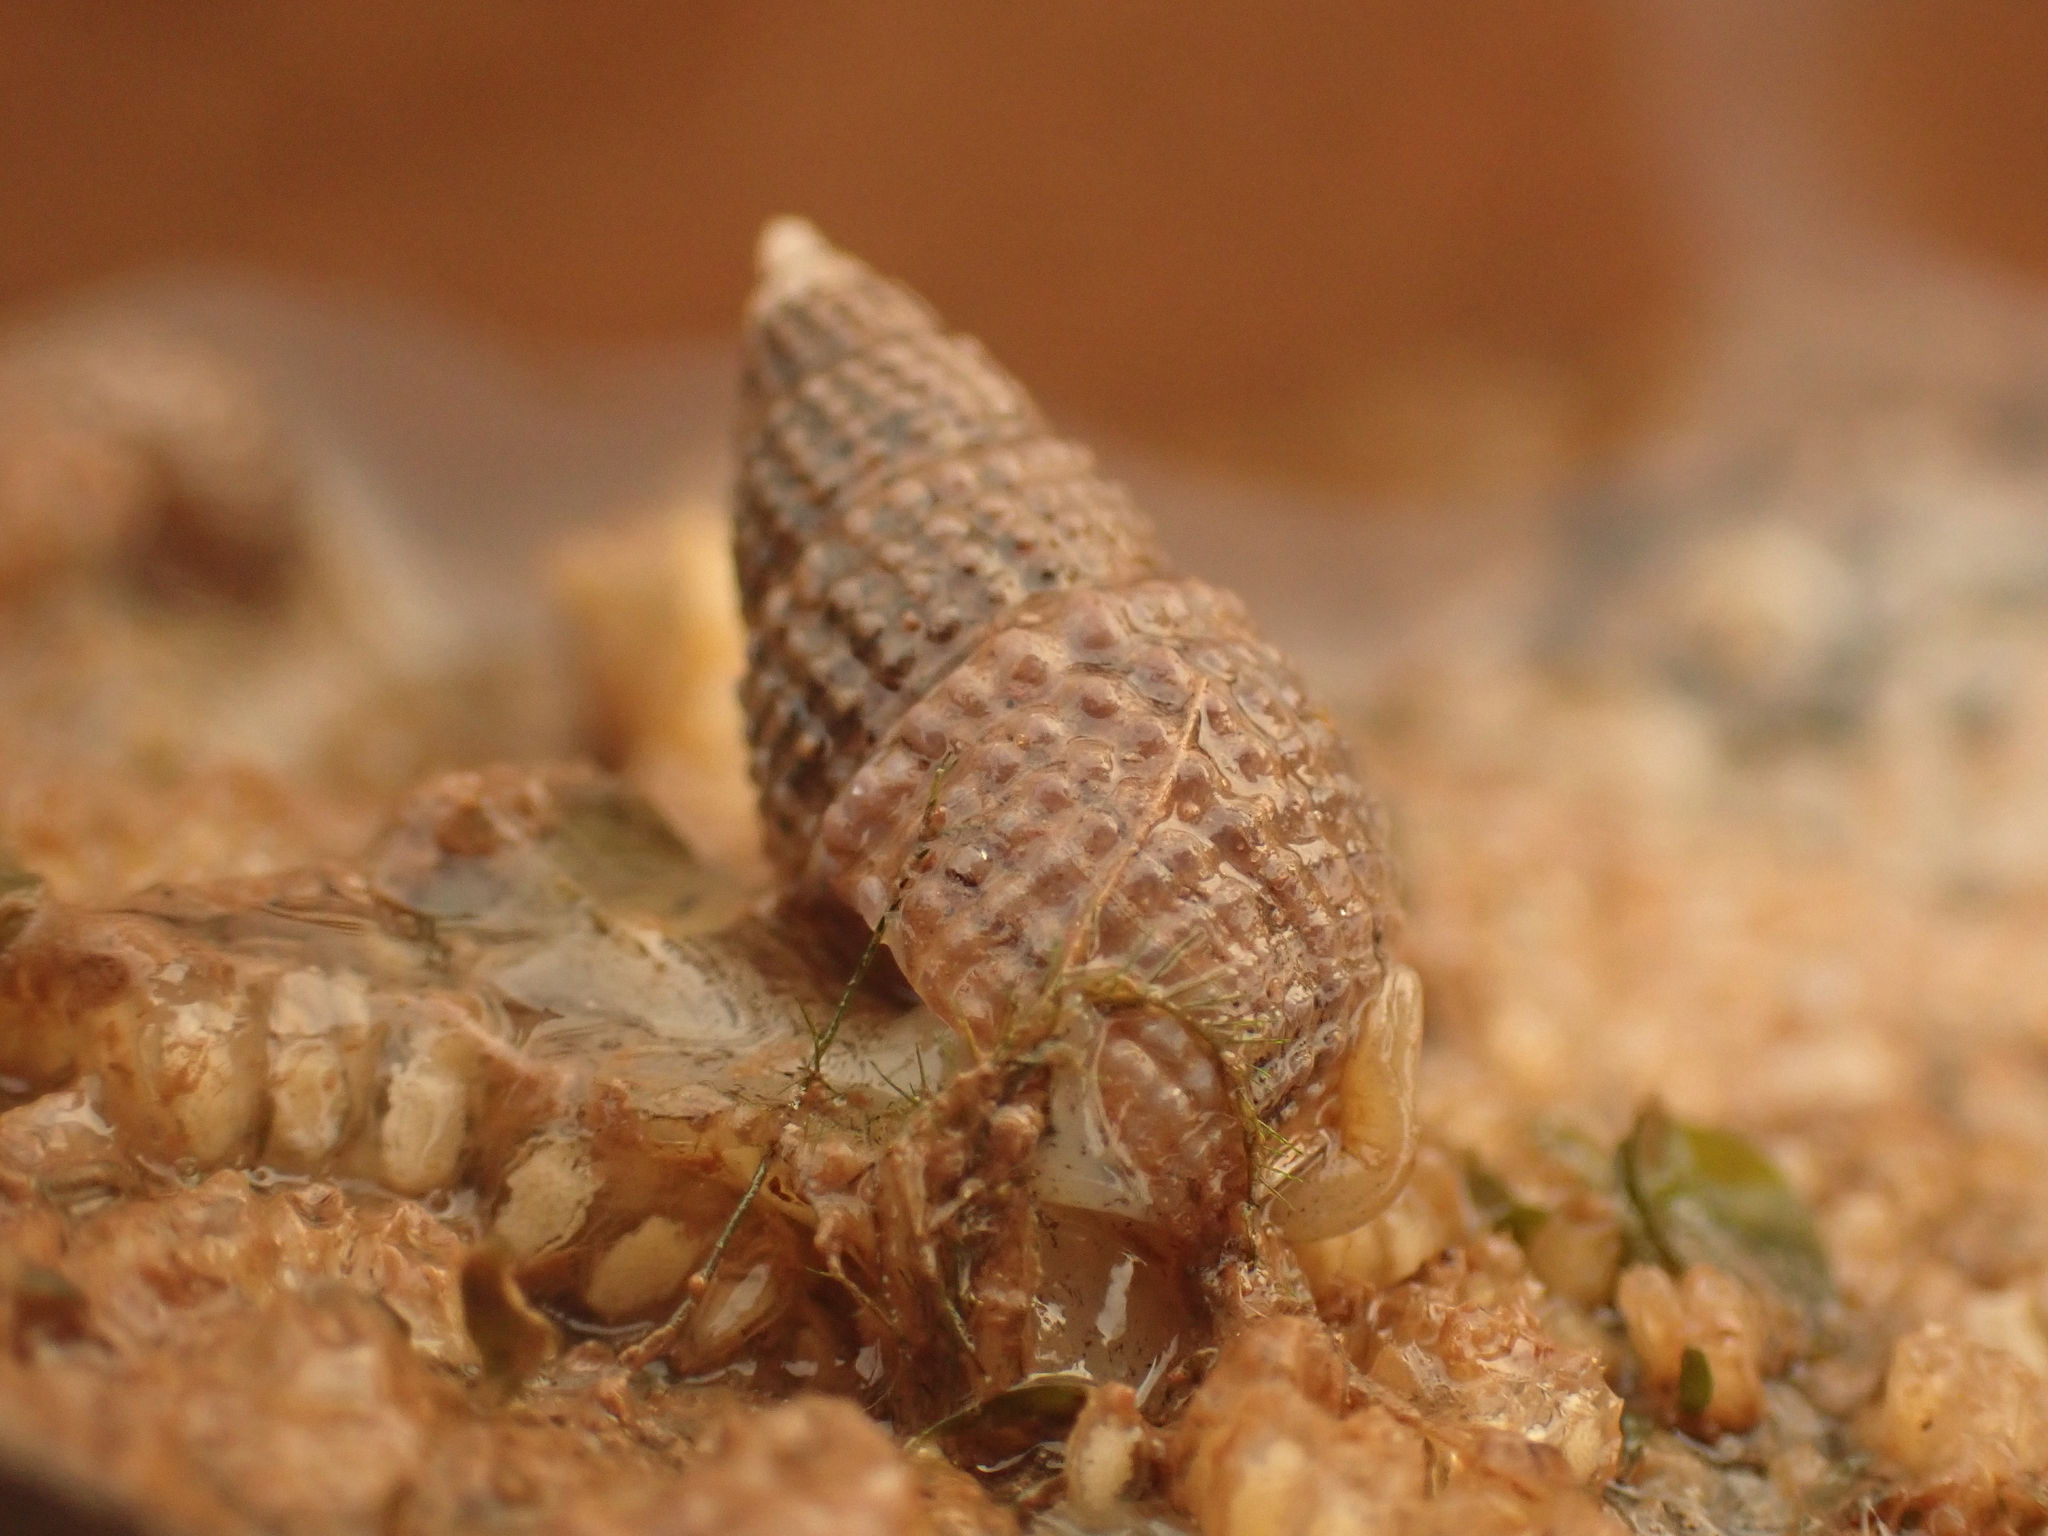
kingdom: Animalia
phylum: Mollusca
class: Gastropoda
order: Neogastropoda
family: Nassariidae
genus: Ilyanassa
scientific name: Ilyanassa trivittata
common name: Three-line mudsnail
